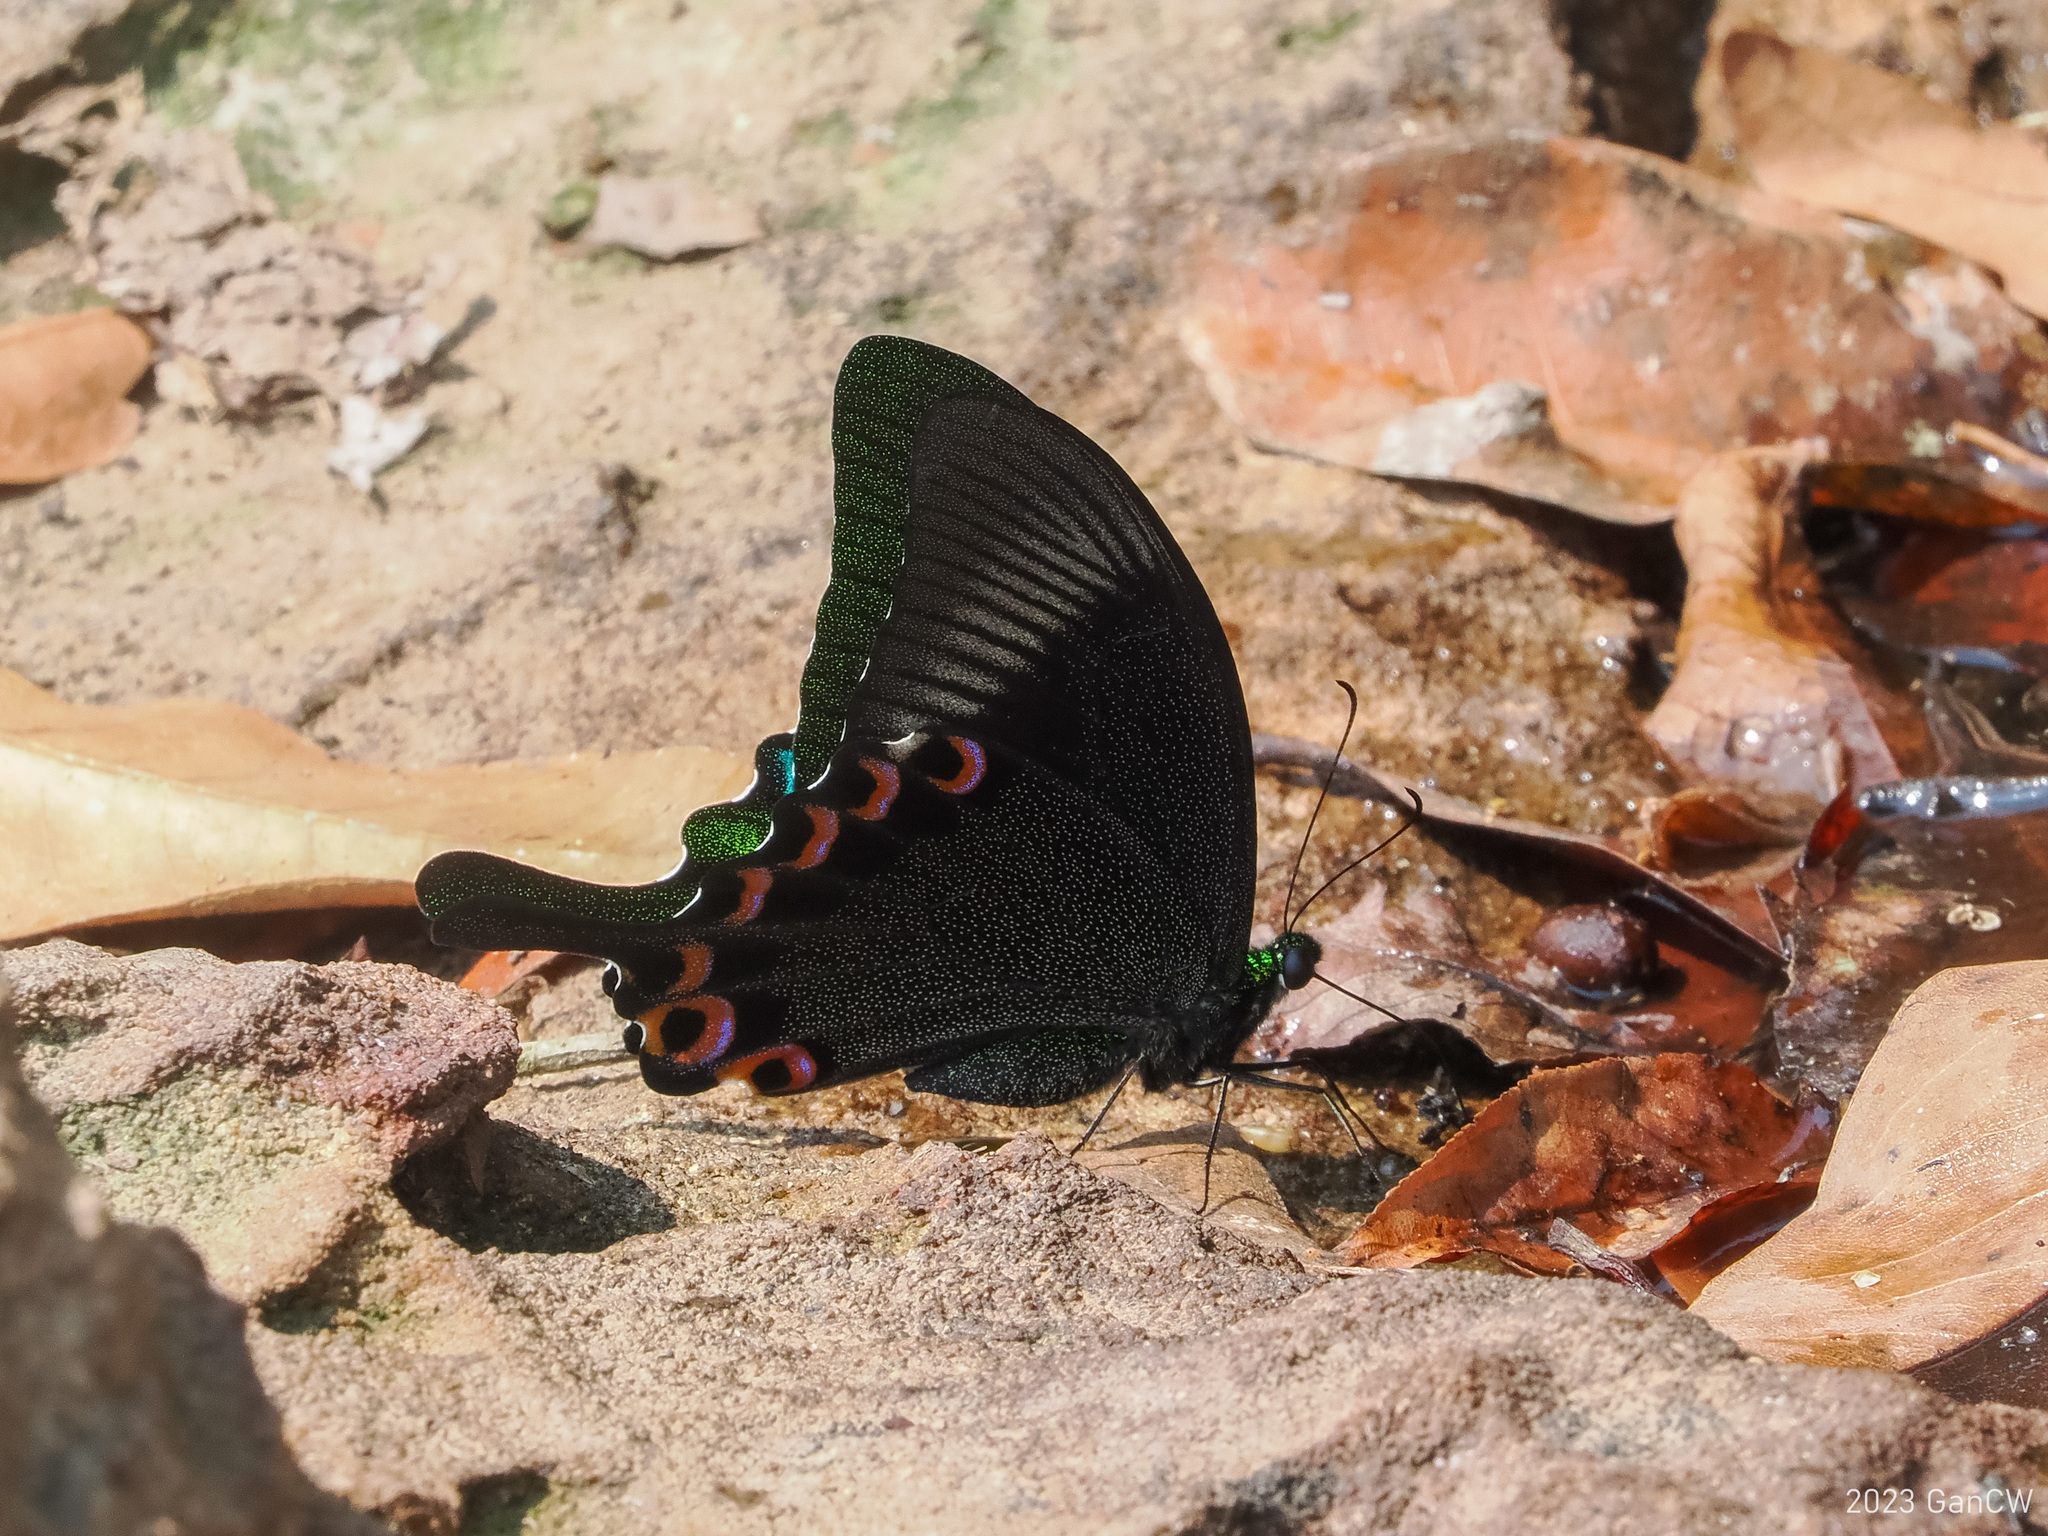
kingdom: Animalia
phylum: Arthropoda
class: Insecta
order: Lepidoptera
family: Papilionidae
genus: Papilio
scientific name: Papilio paris
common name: Paris peacock
